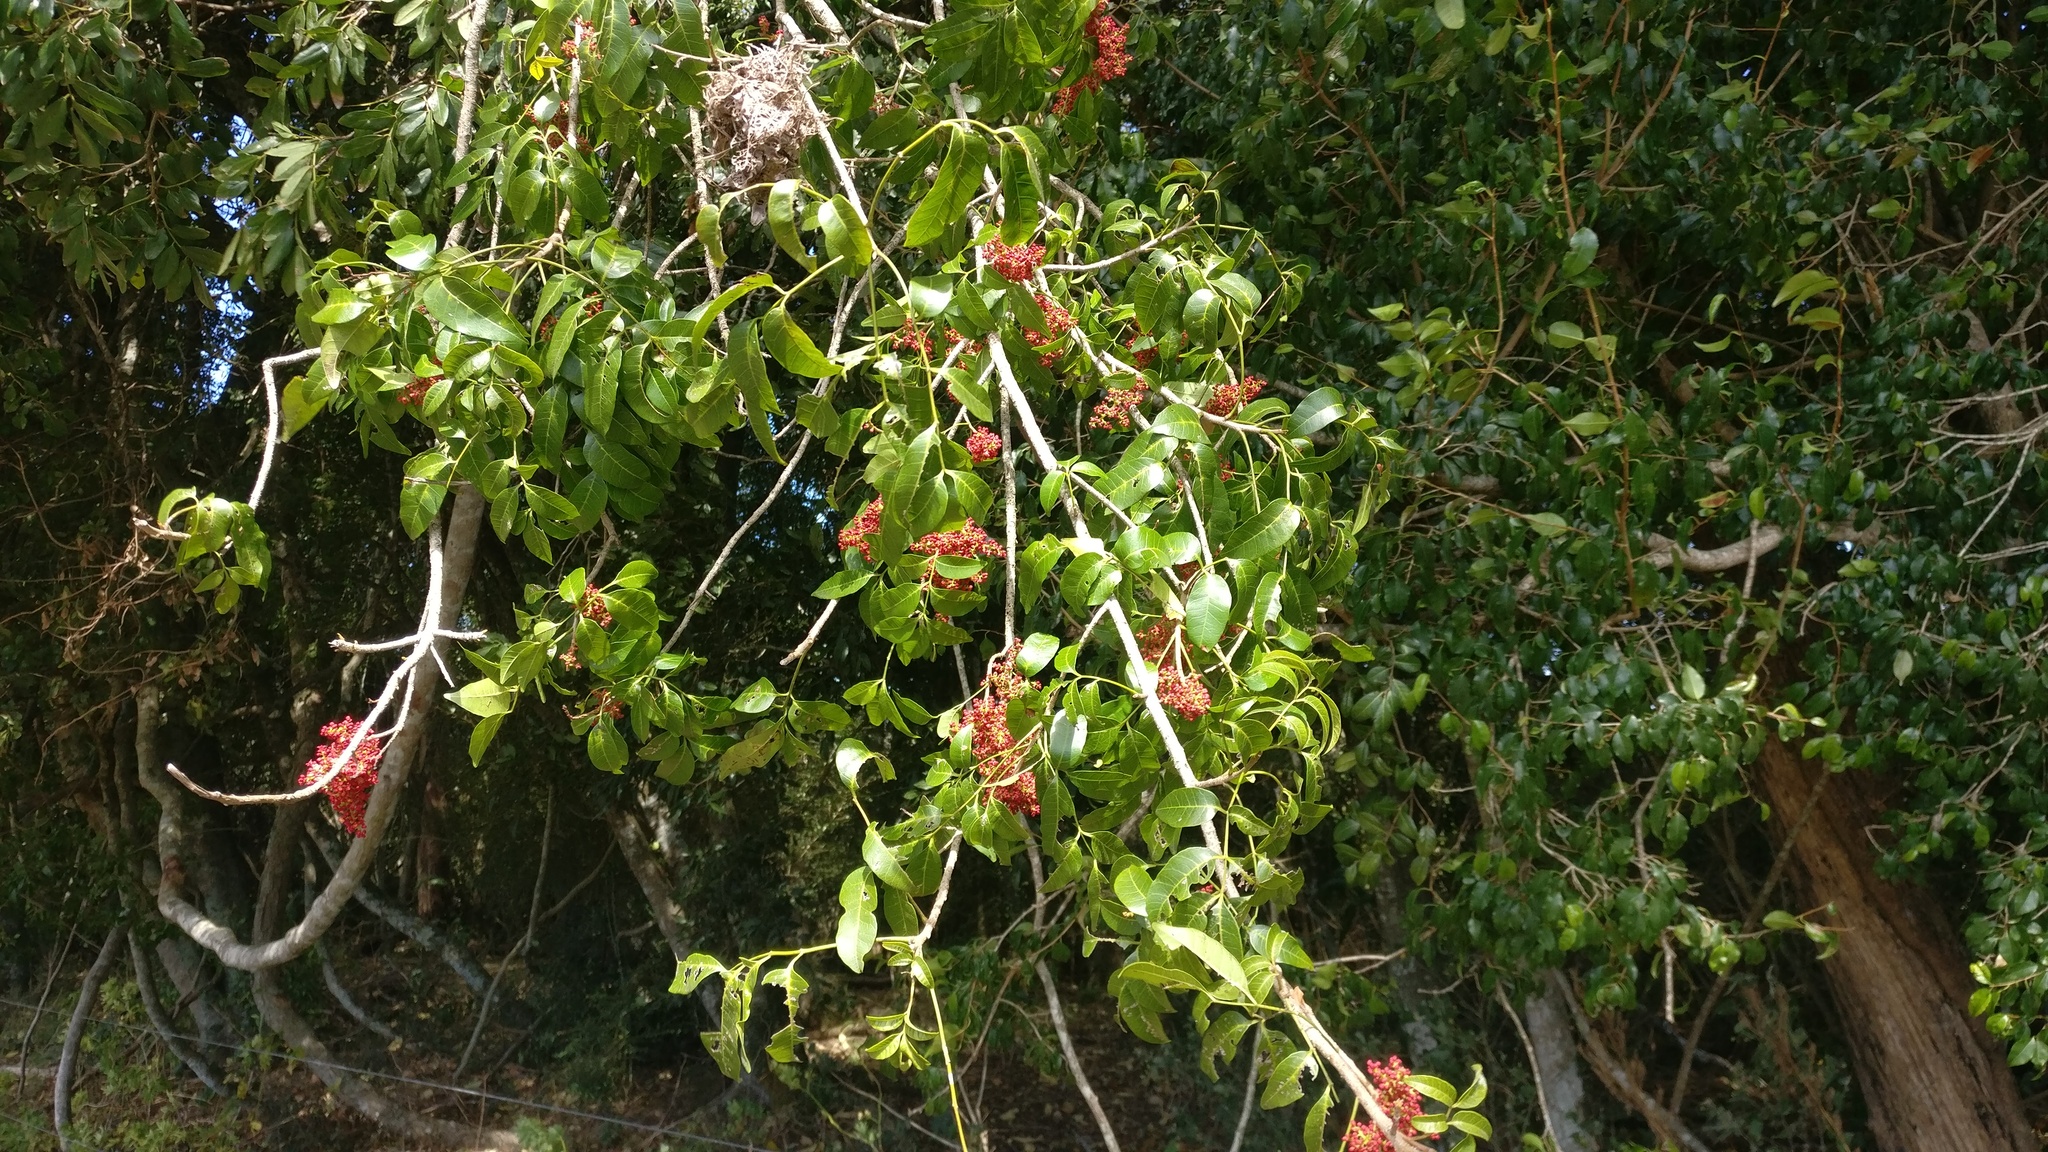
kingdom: Plantae
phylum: Tracheophyta
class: Magnoliopsida
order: Sapindales
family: Anacardiaceae
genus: Rhodosphaera
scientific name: Rhodosphaera rhodanthema
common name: Tulip satinwood
